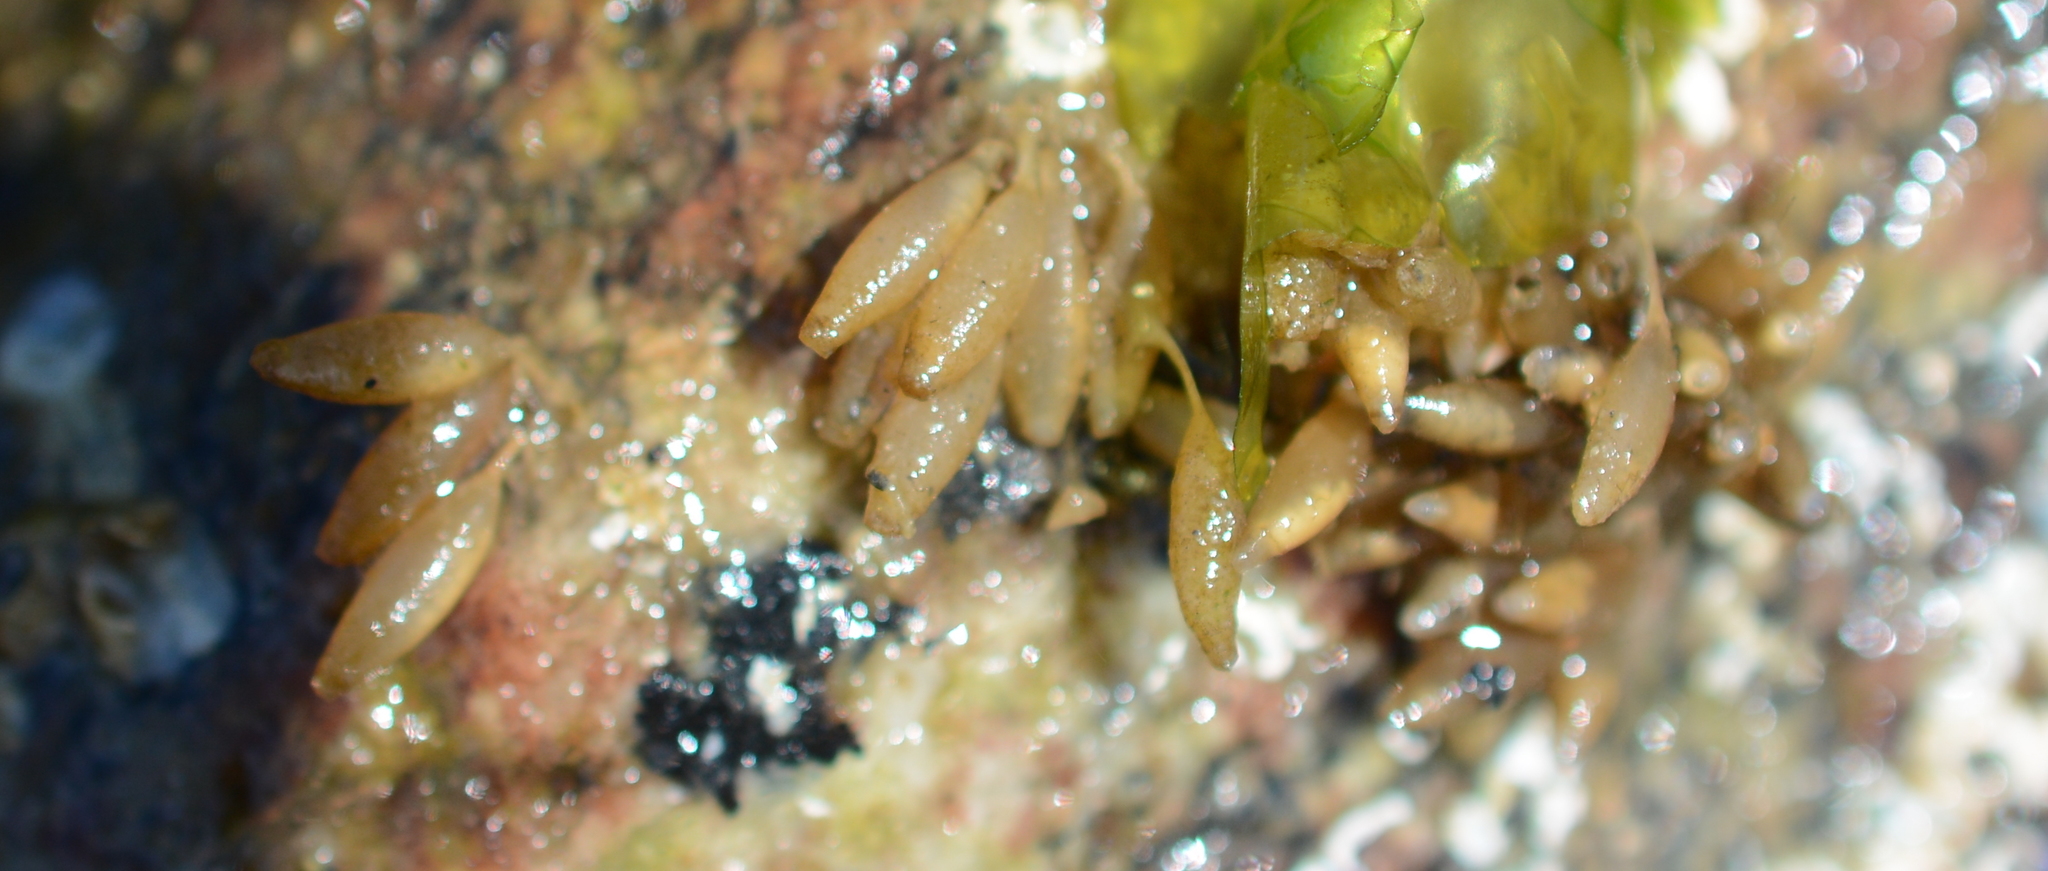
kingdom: Animalia
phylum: Mollusca
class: Gastropoda
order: Neogastropoda
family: Muricidae
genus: Nucella
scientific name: Nucella lamellosa
